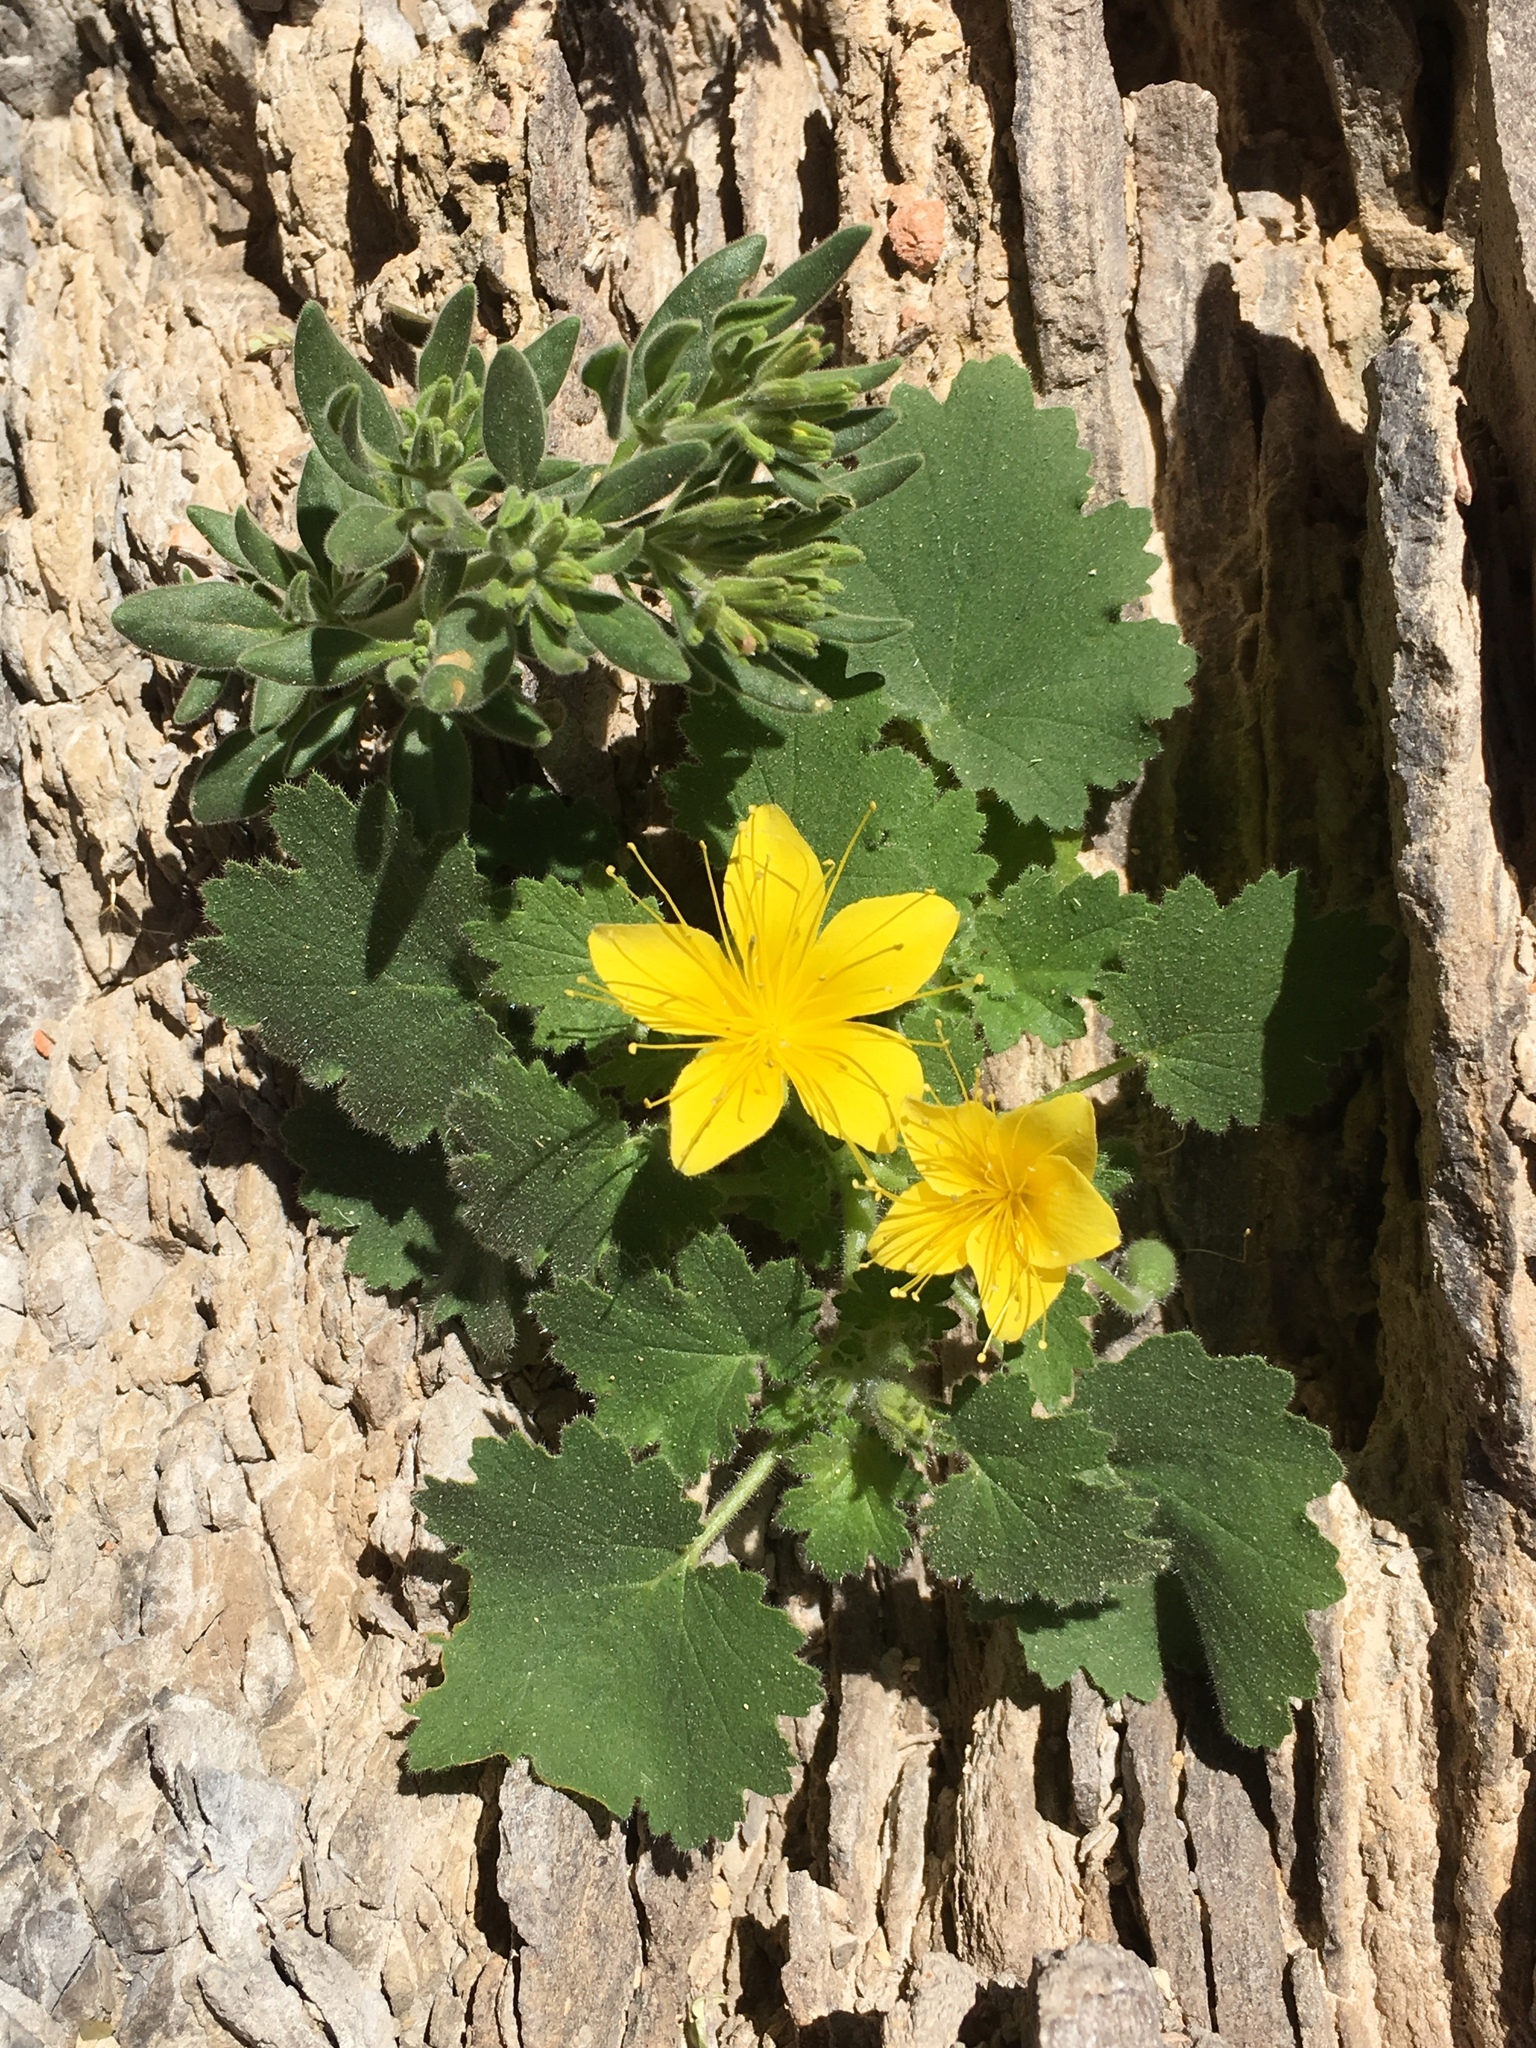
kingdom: Plantae
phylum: Tracheophyta
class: Magnoliopsida
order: Cornales
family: Loasaceae
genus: Eucnide
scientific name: Eucnide bartonioides
